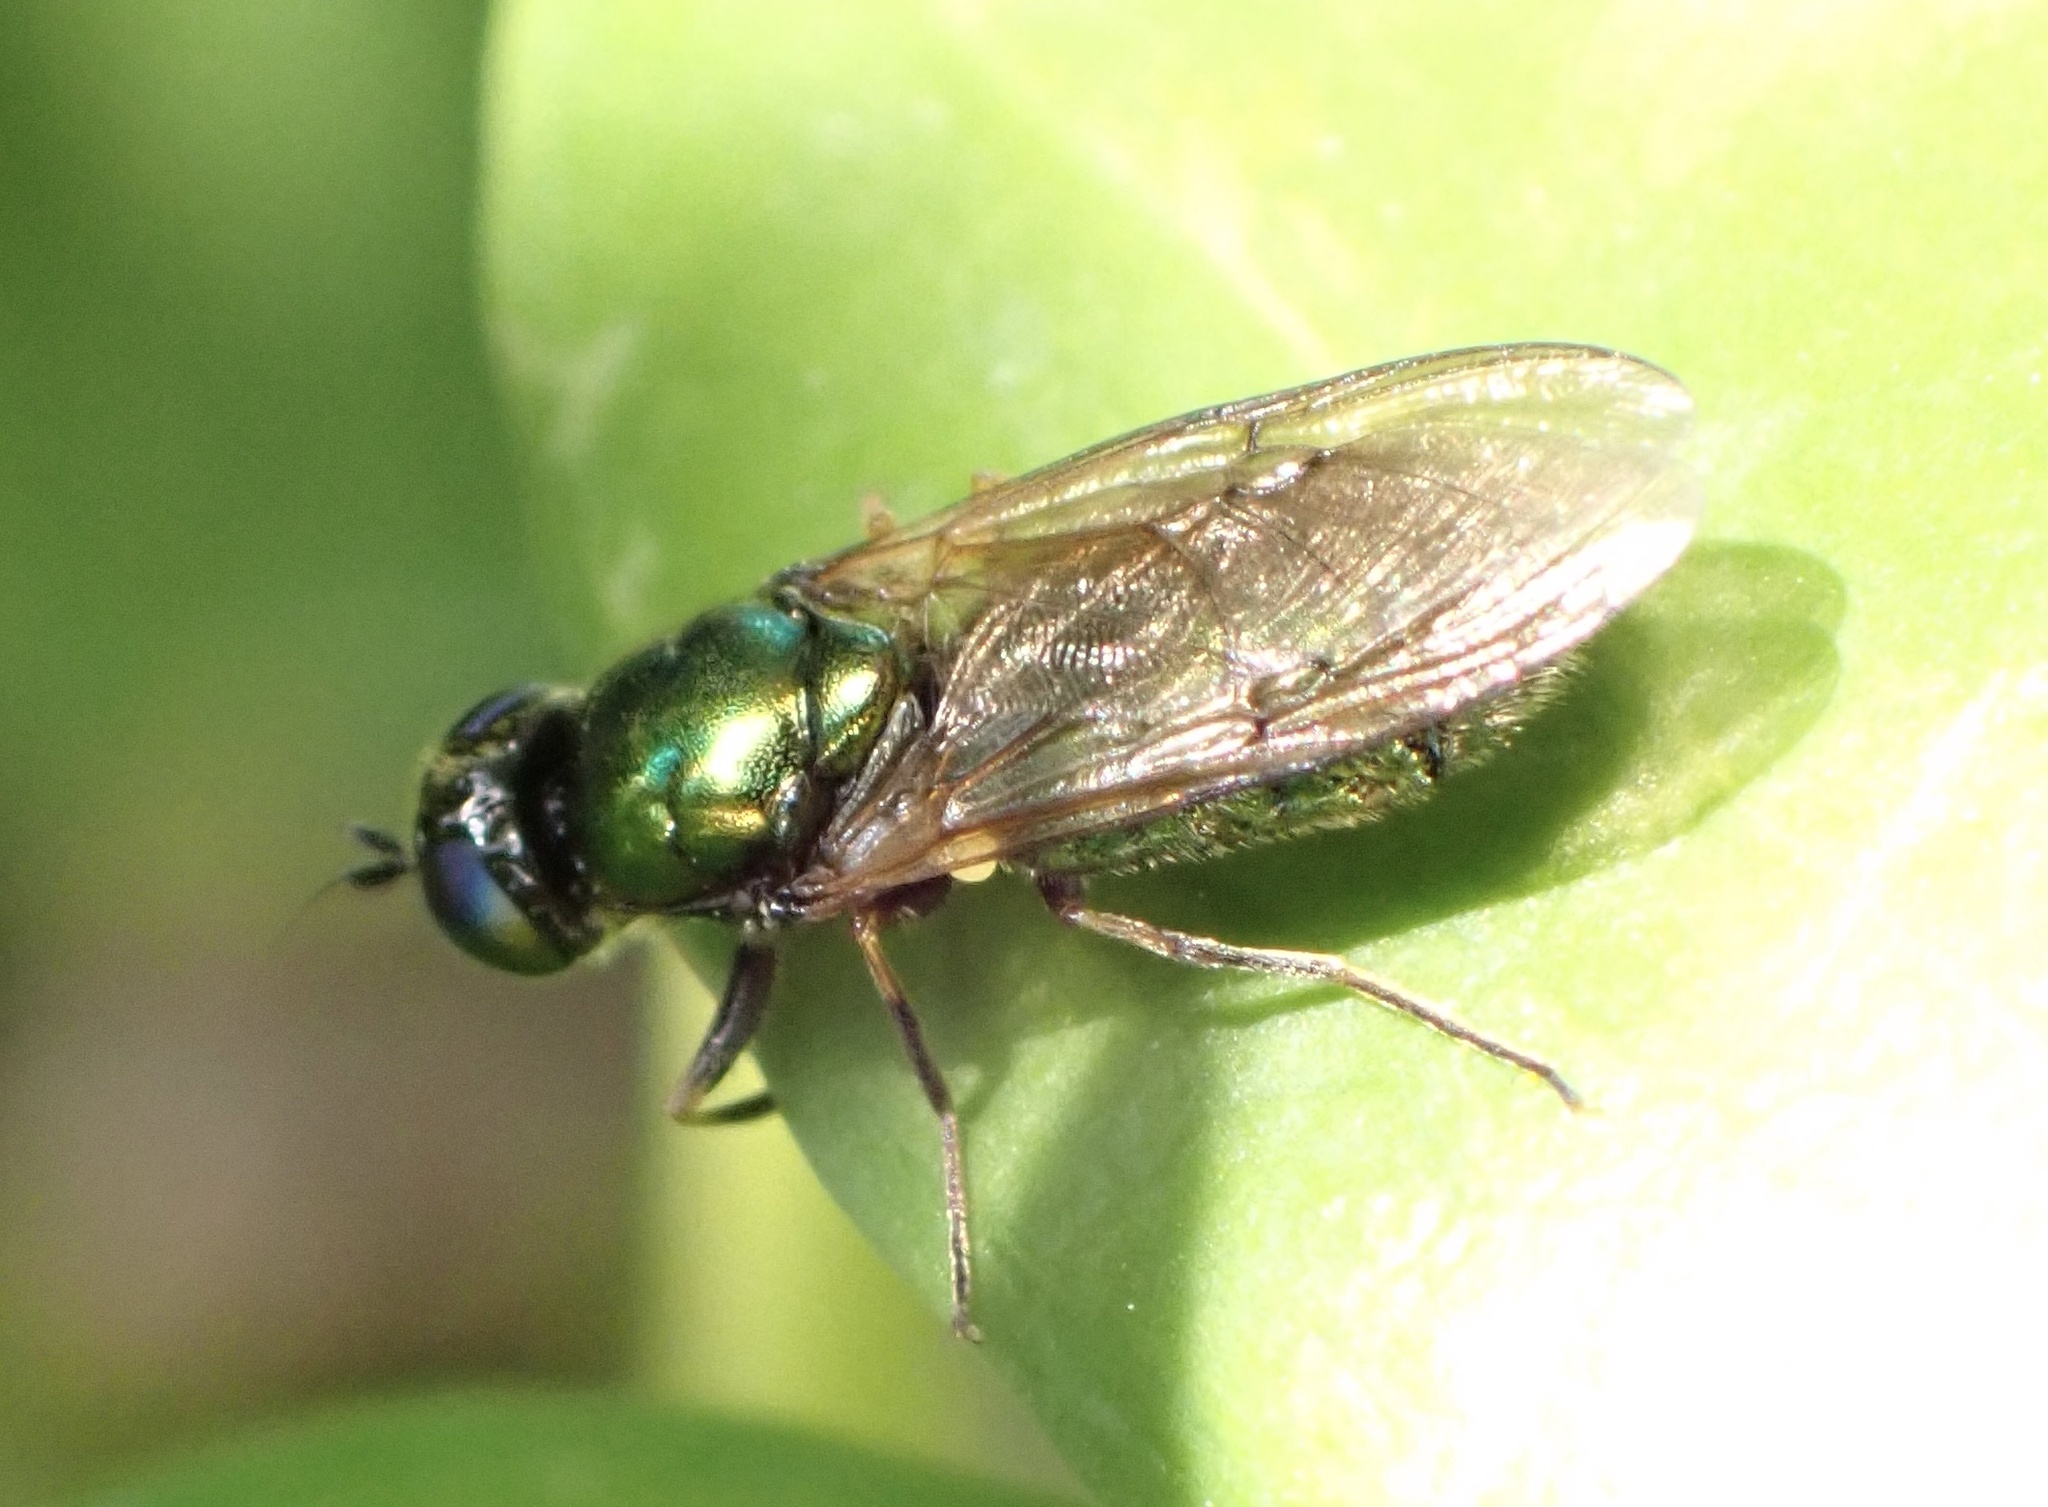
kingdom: Animalia
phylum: Arthropoda
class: Insecta
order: Diptera
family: Stratiomyidae
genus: Chloromyia
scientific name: Chloromyia formosa
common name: Soldier fly
